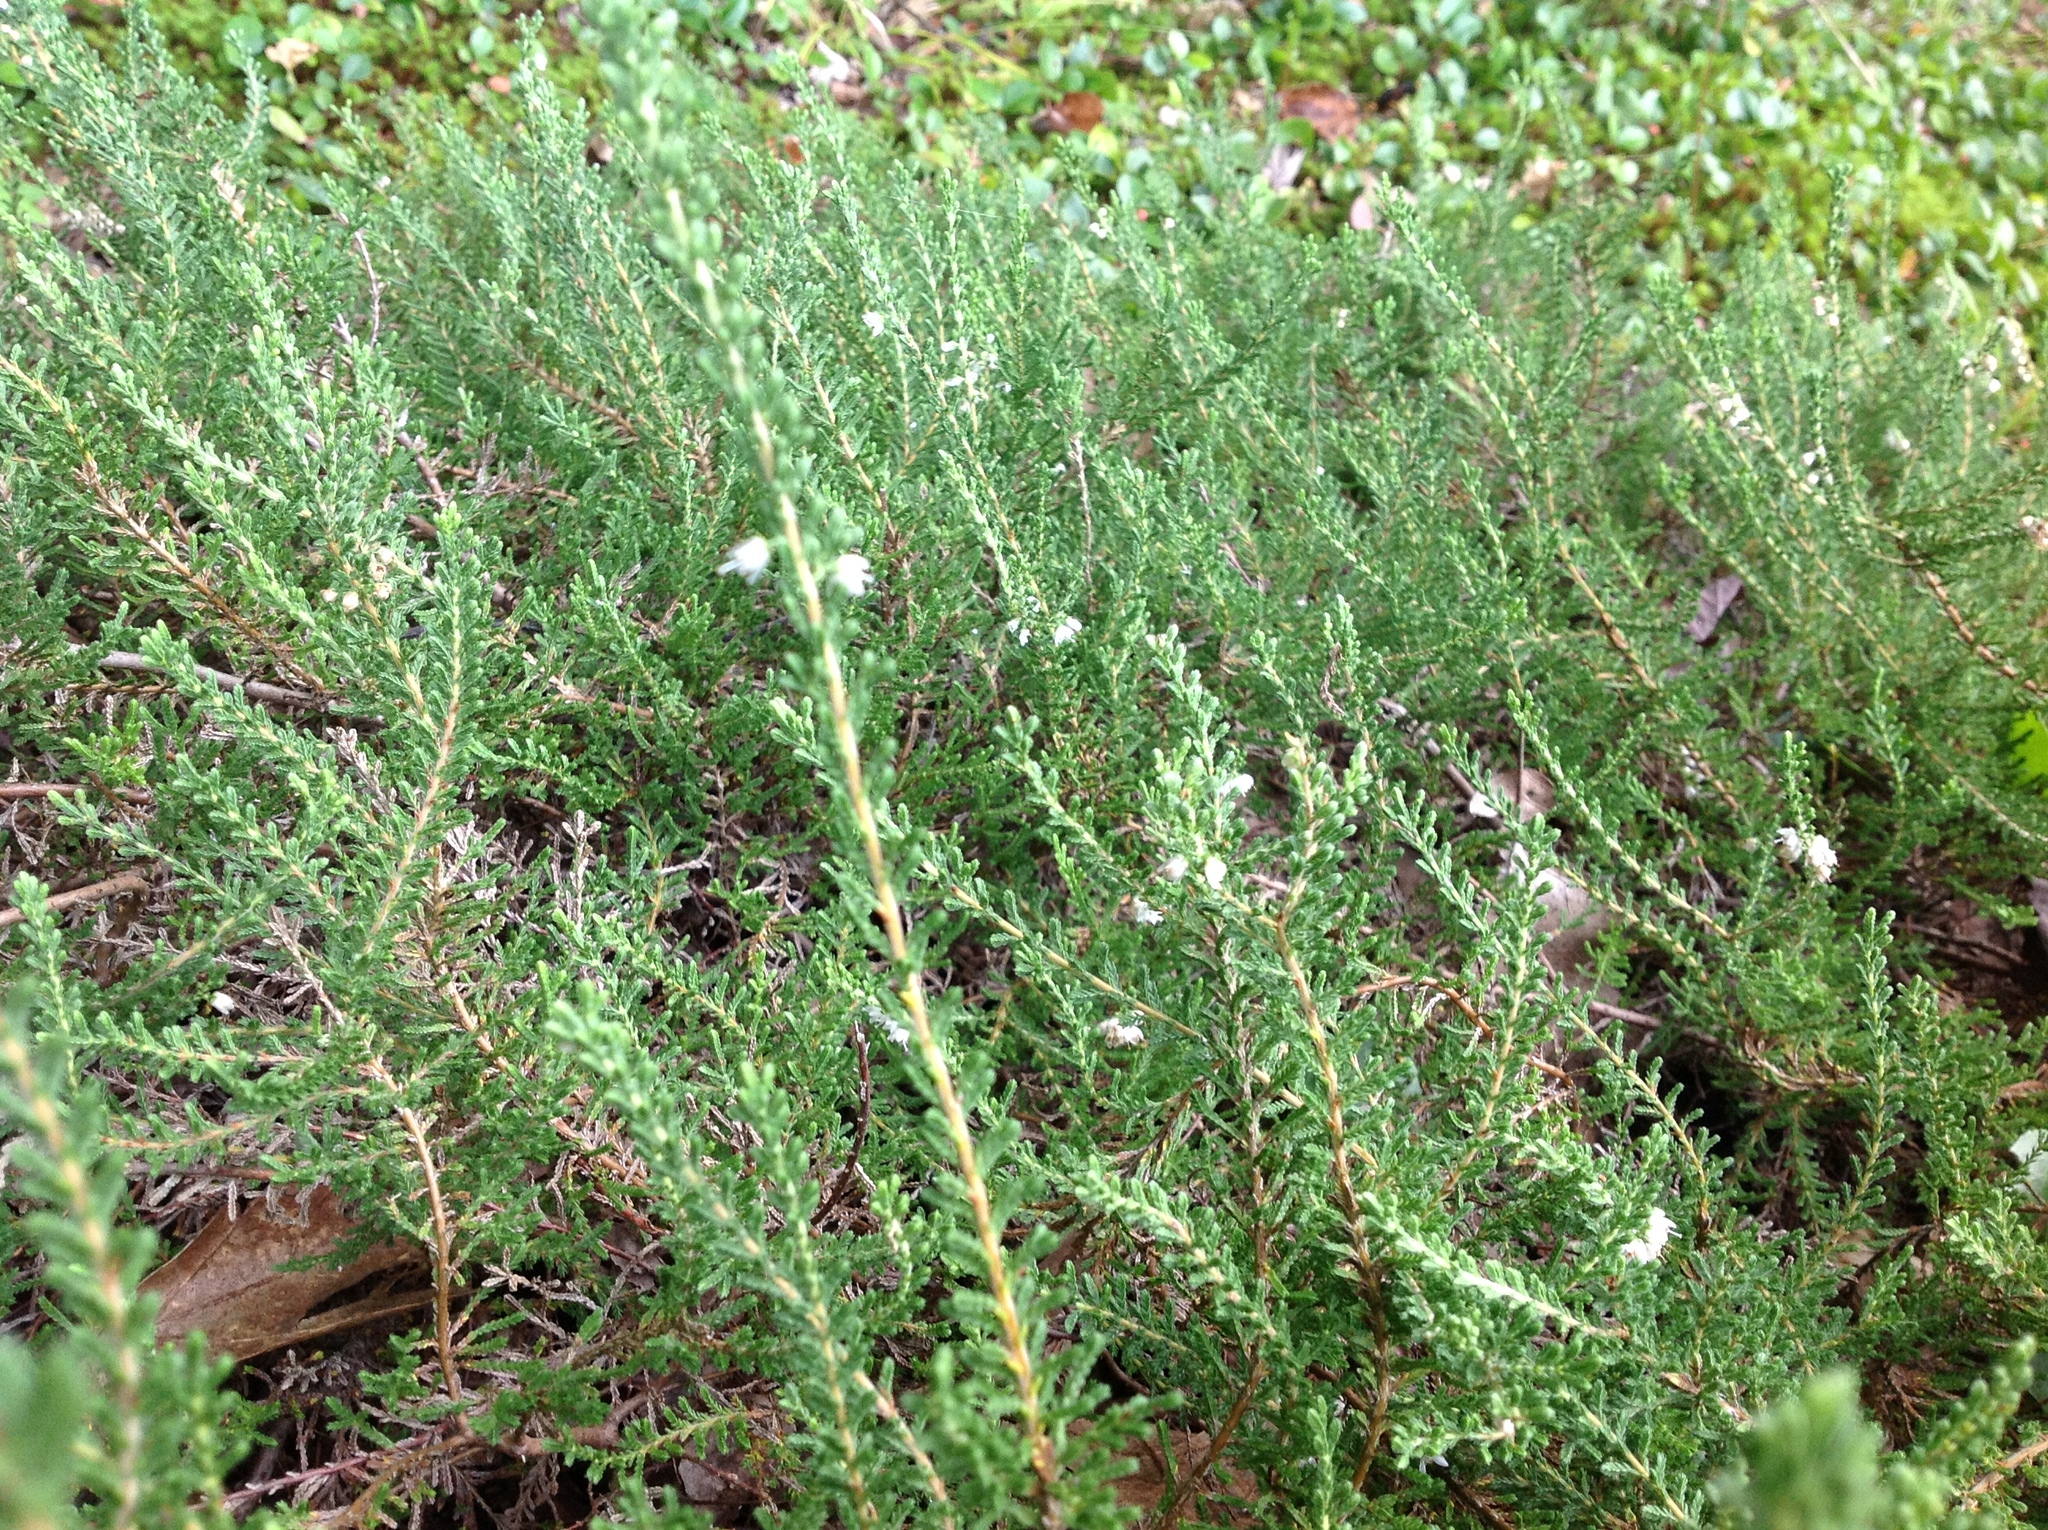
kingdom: Plantae
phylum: Tracheophyta
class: Magnoliopsida
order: Ericales
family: Ericaceae
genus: Calluna
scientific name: Calluna vulgaris
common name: Heather
